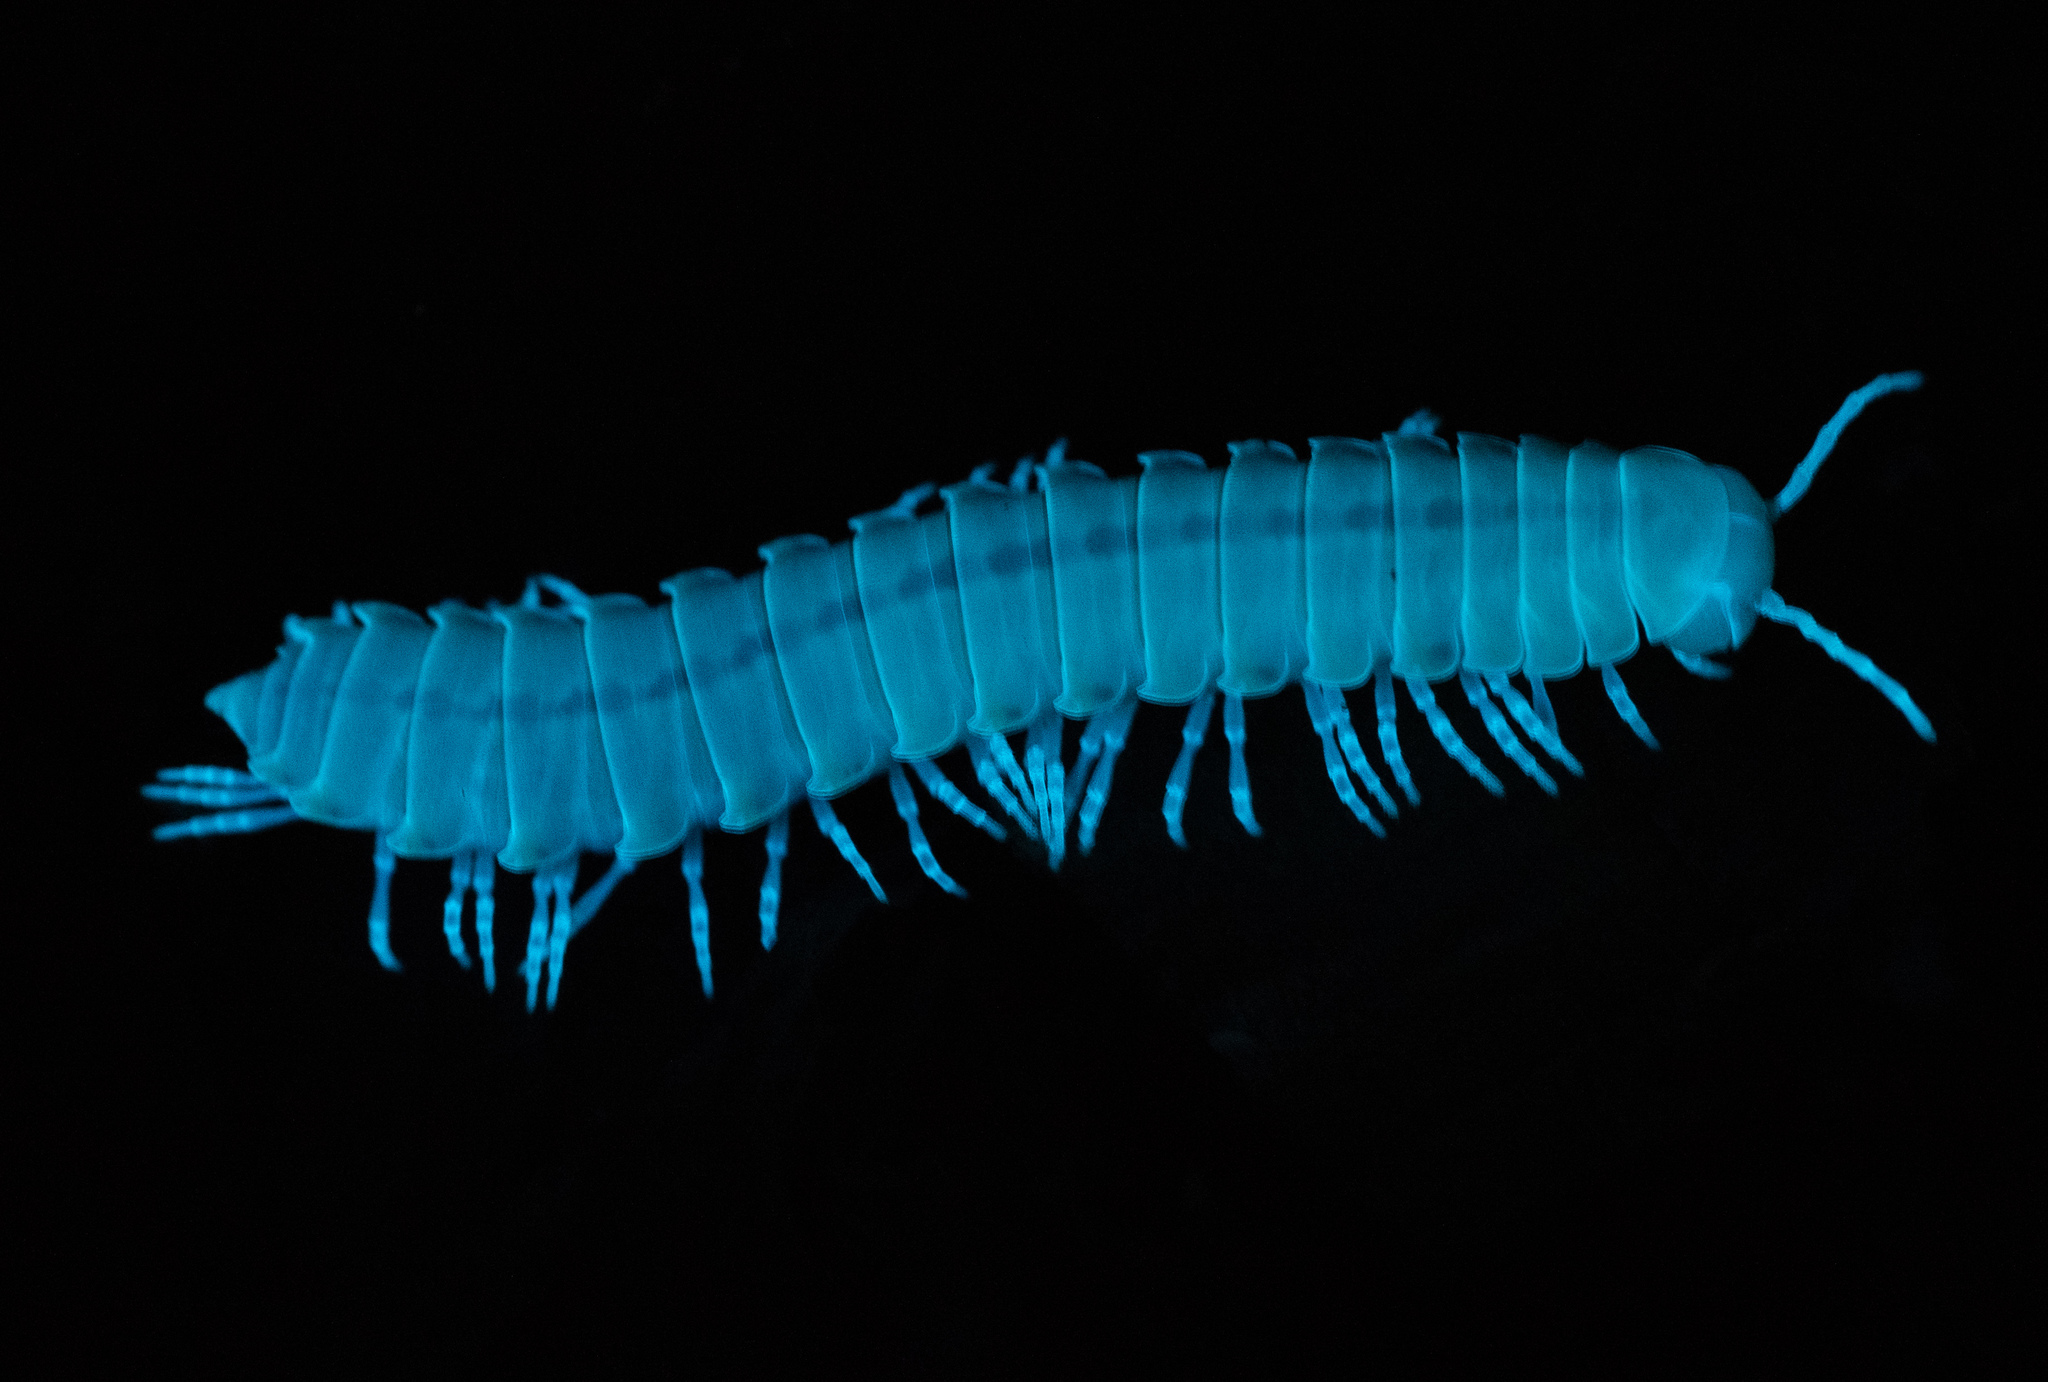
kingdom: Animalia
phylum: Arthropoda
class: Diplopoda
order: Polydesmida
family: Xystodesmidae
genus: Xystocheir
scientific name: Xystocheir dissecta
